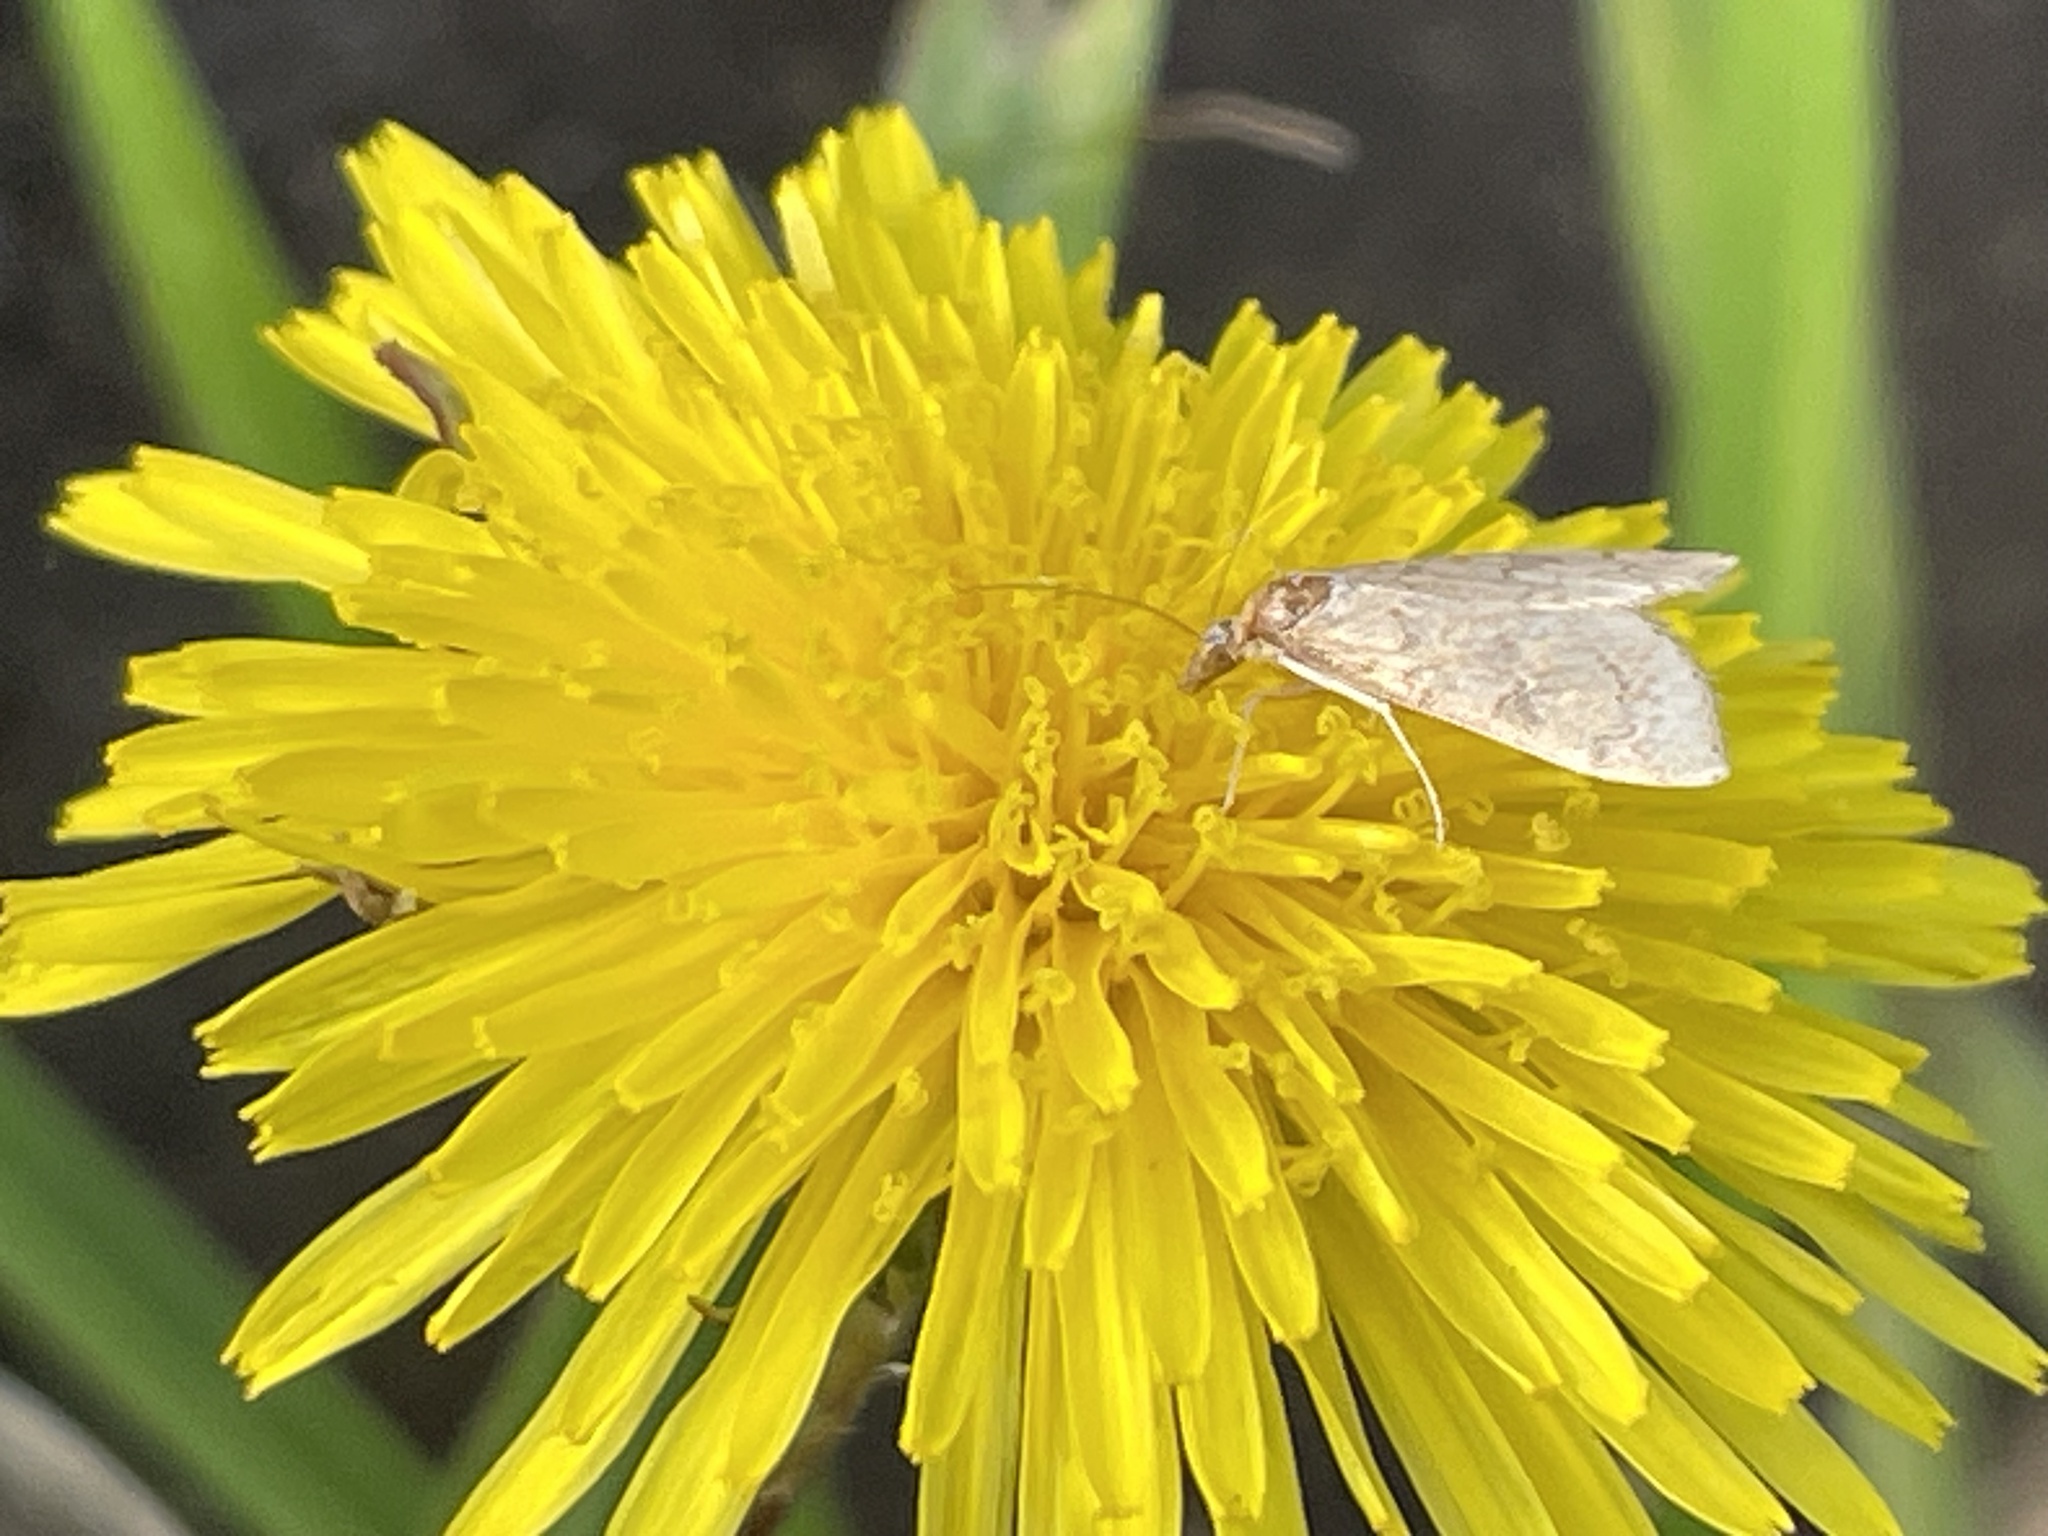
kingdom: Animalia
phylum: Arthropoda
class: Insecta
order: Lepidoptera
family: Crambidae
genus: Udea
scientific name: Udea rubigalis
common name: Celery leaftier moth
